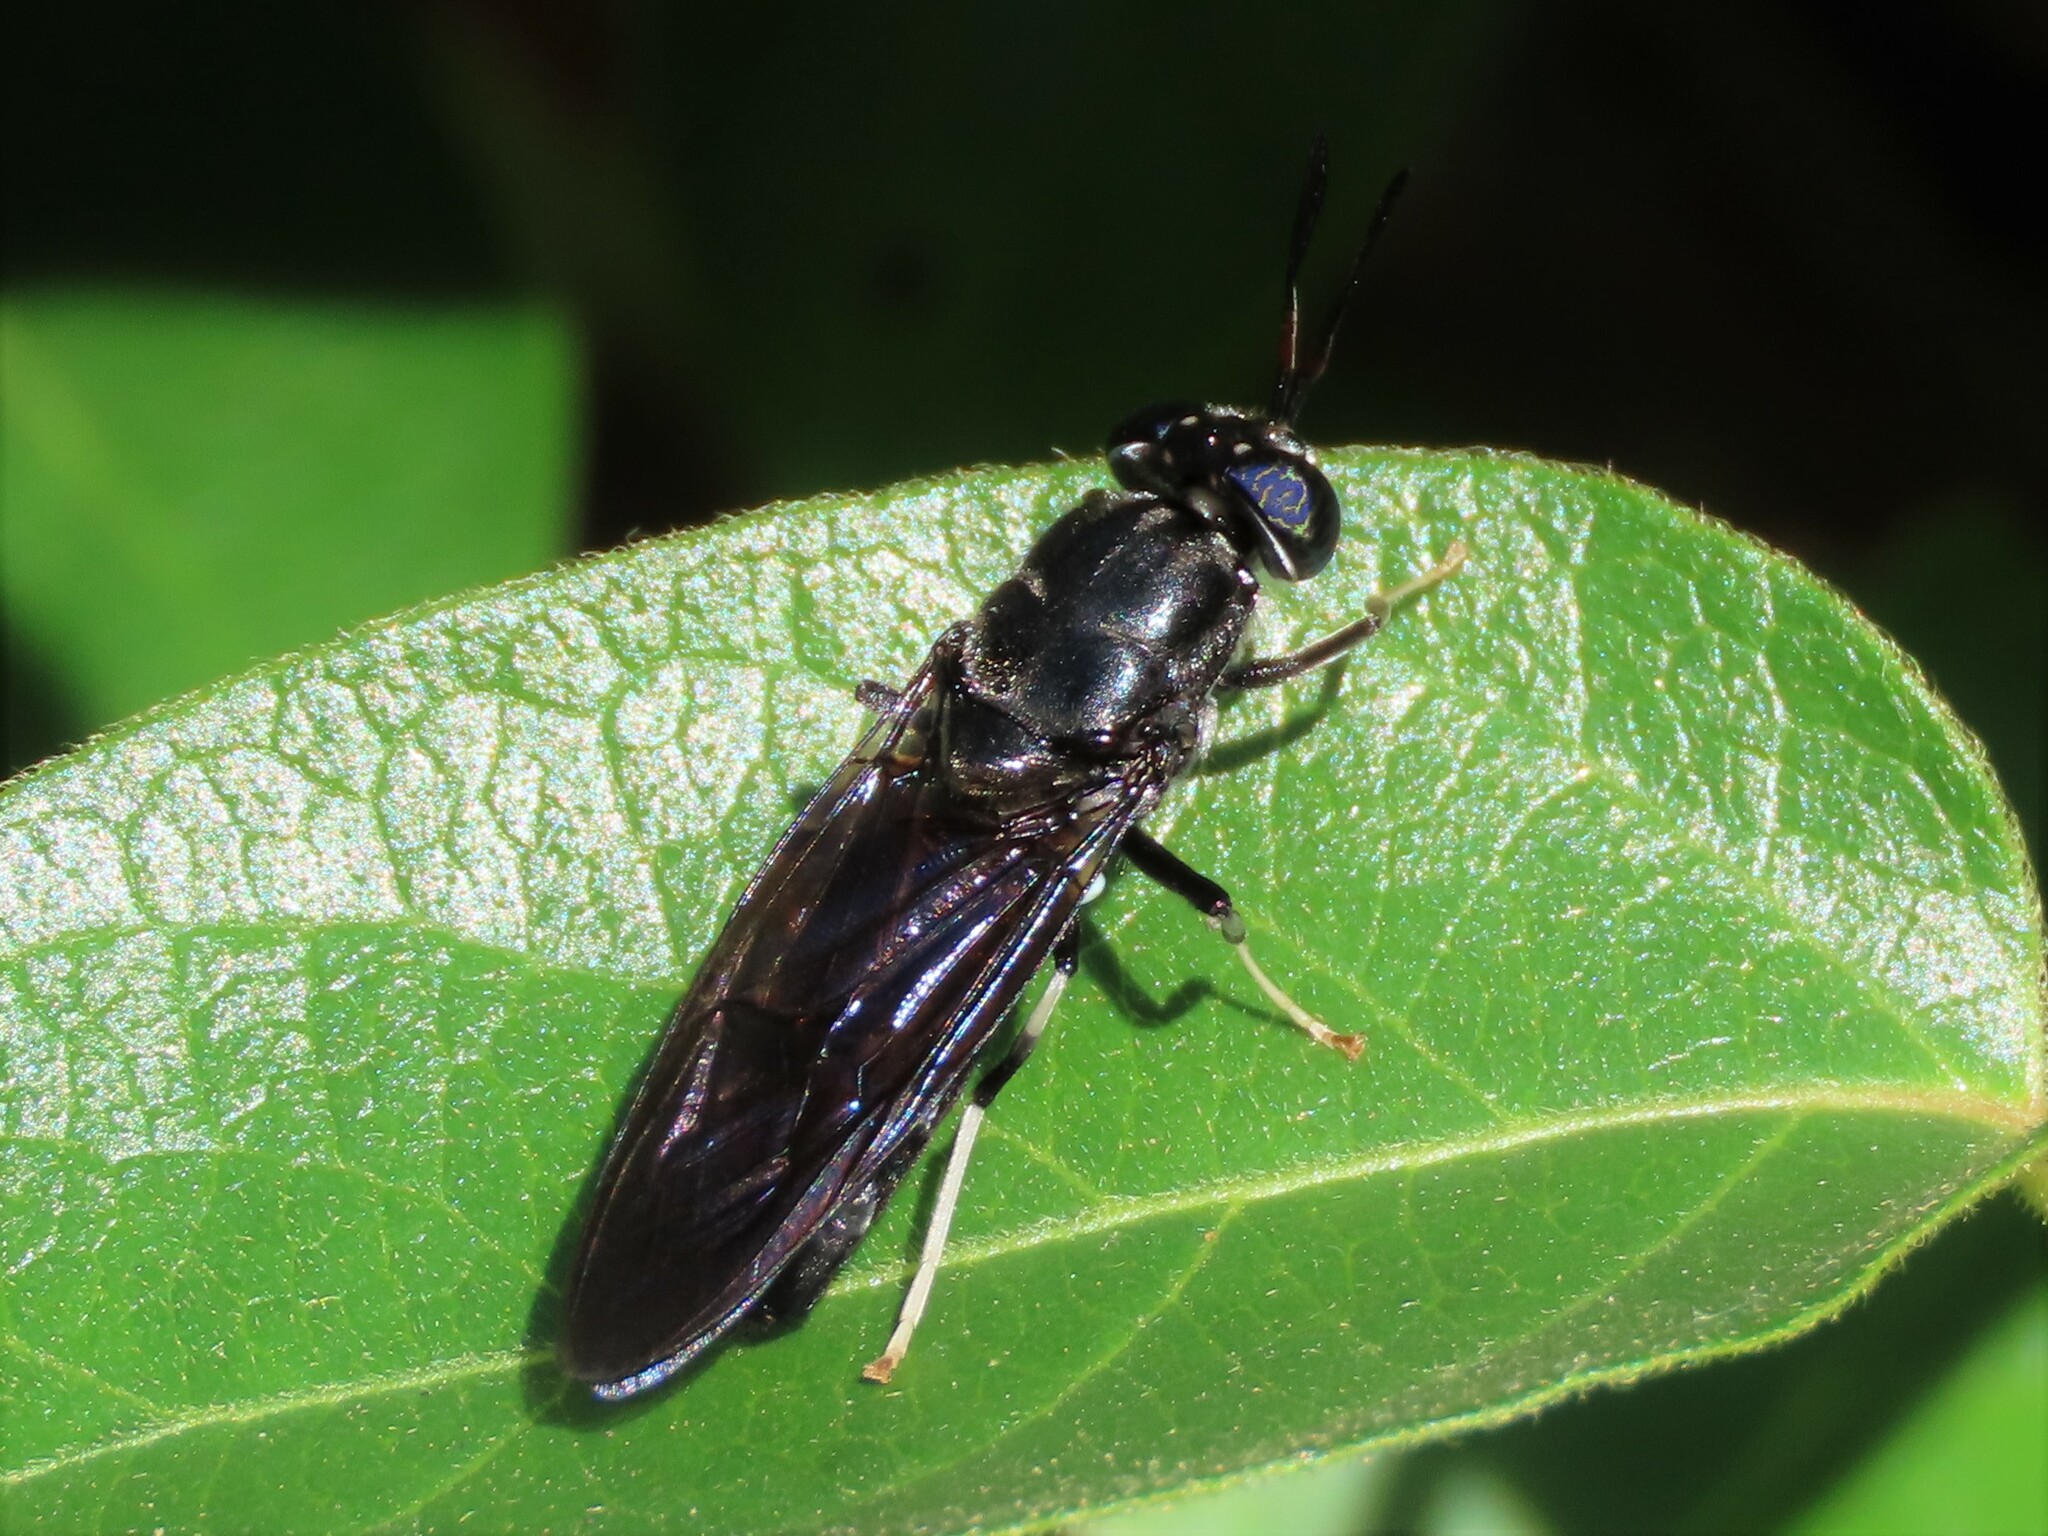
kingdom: Animalia
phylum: Arthropoda
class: Insecta
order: Diptera
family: Stratiomyidae
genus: Hermetia
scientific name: Hermetia illucens
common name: Black soldier fly
